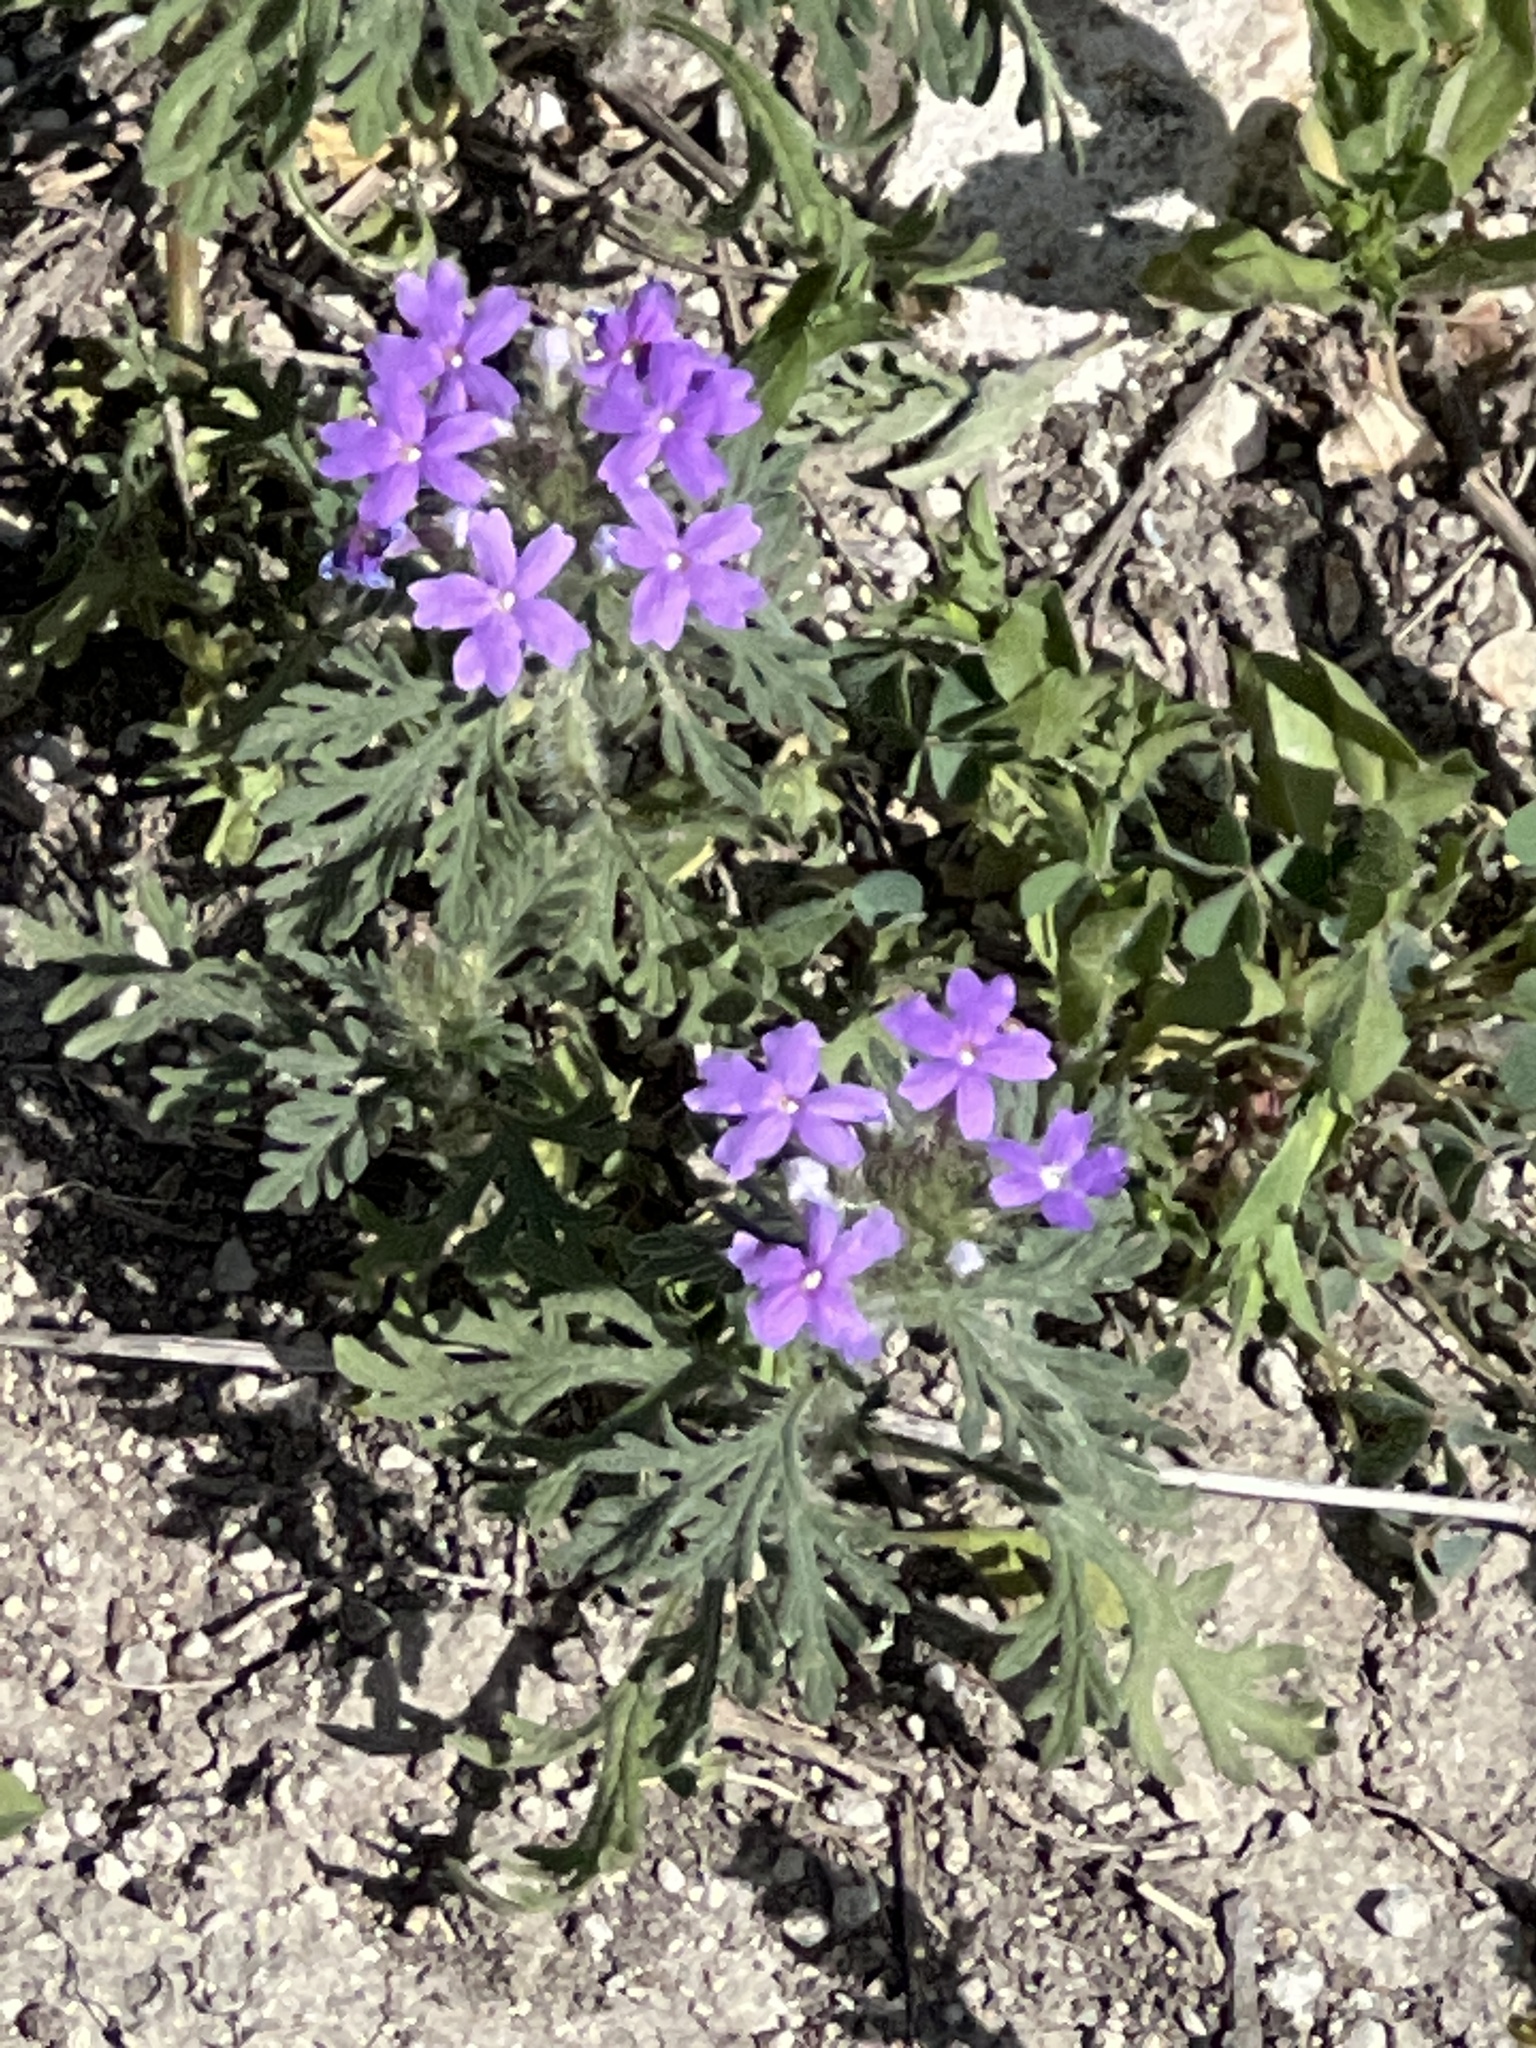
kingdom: Plantae
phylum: Tracheophyta
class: Magnoliopsida
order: Lamiales
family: Verbenaceae
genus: Verbena
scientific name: Verbena bipinnatifida
